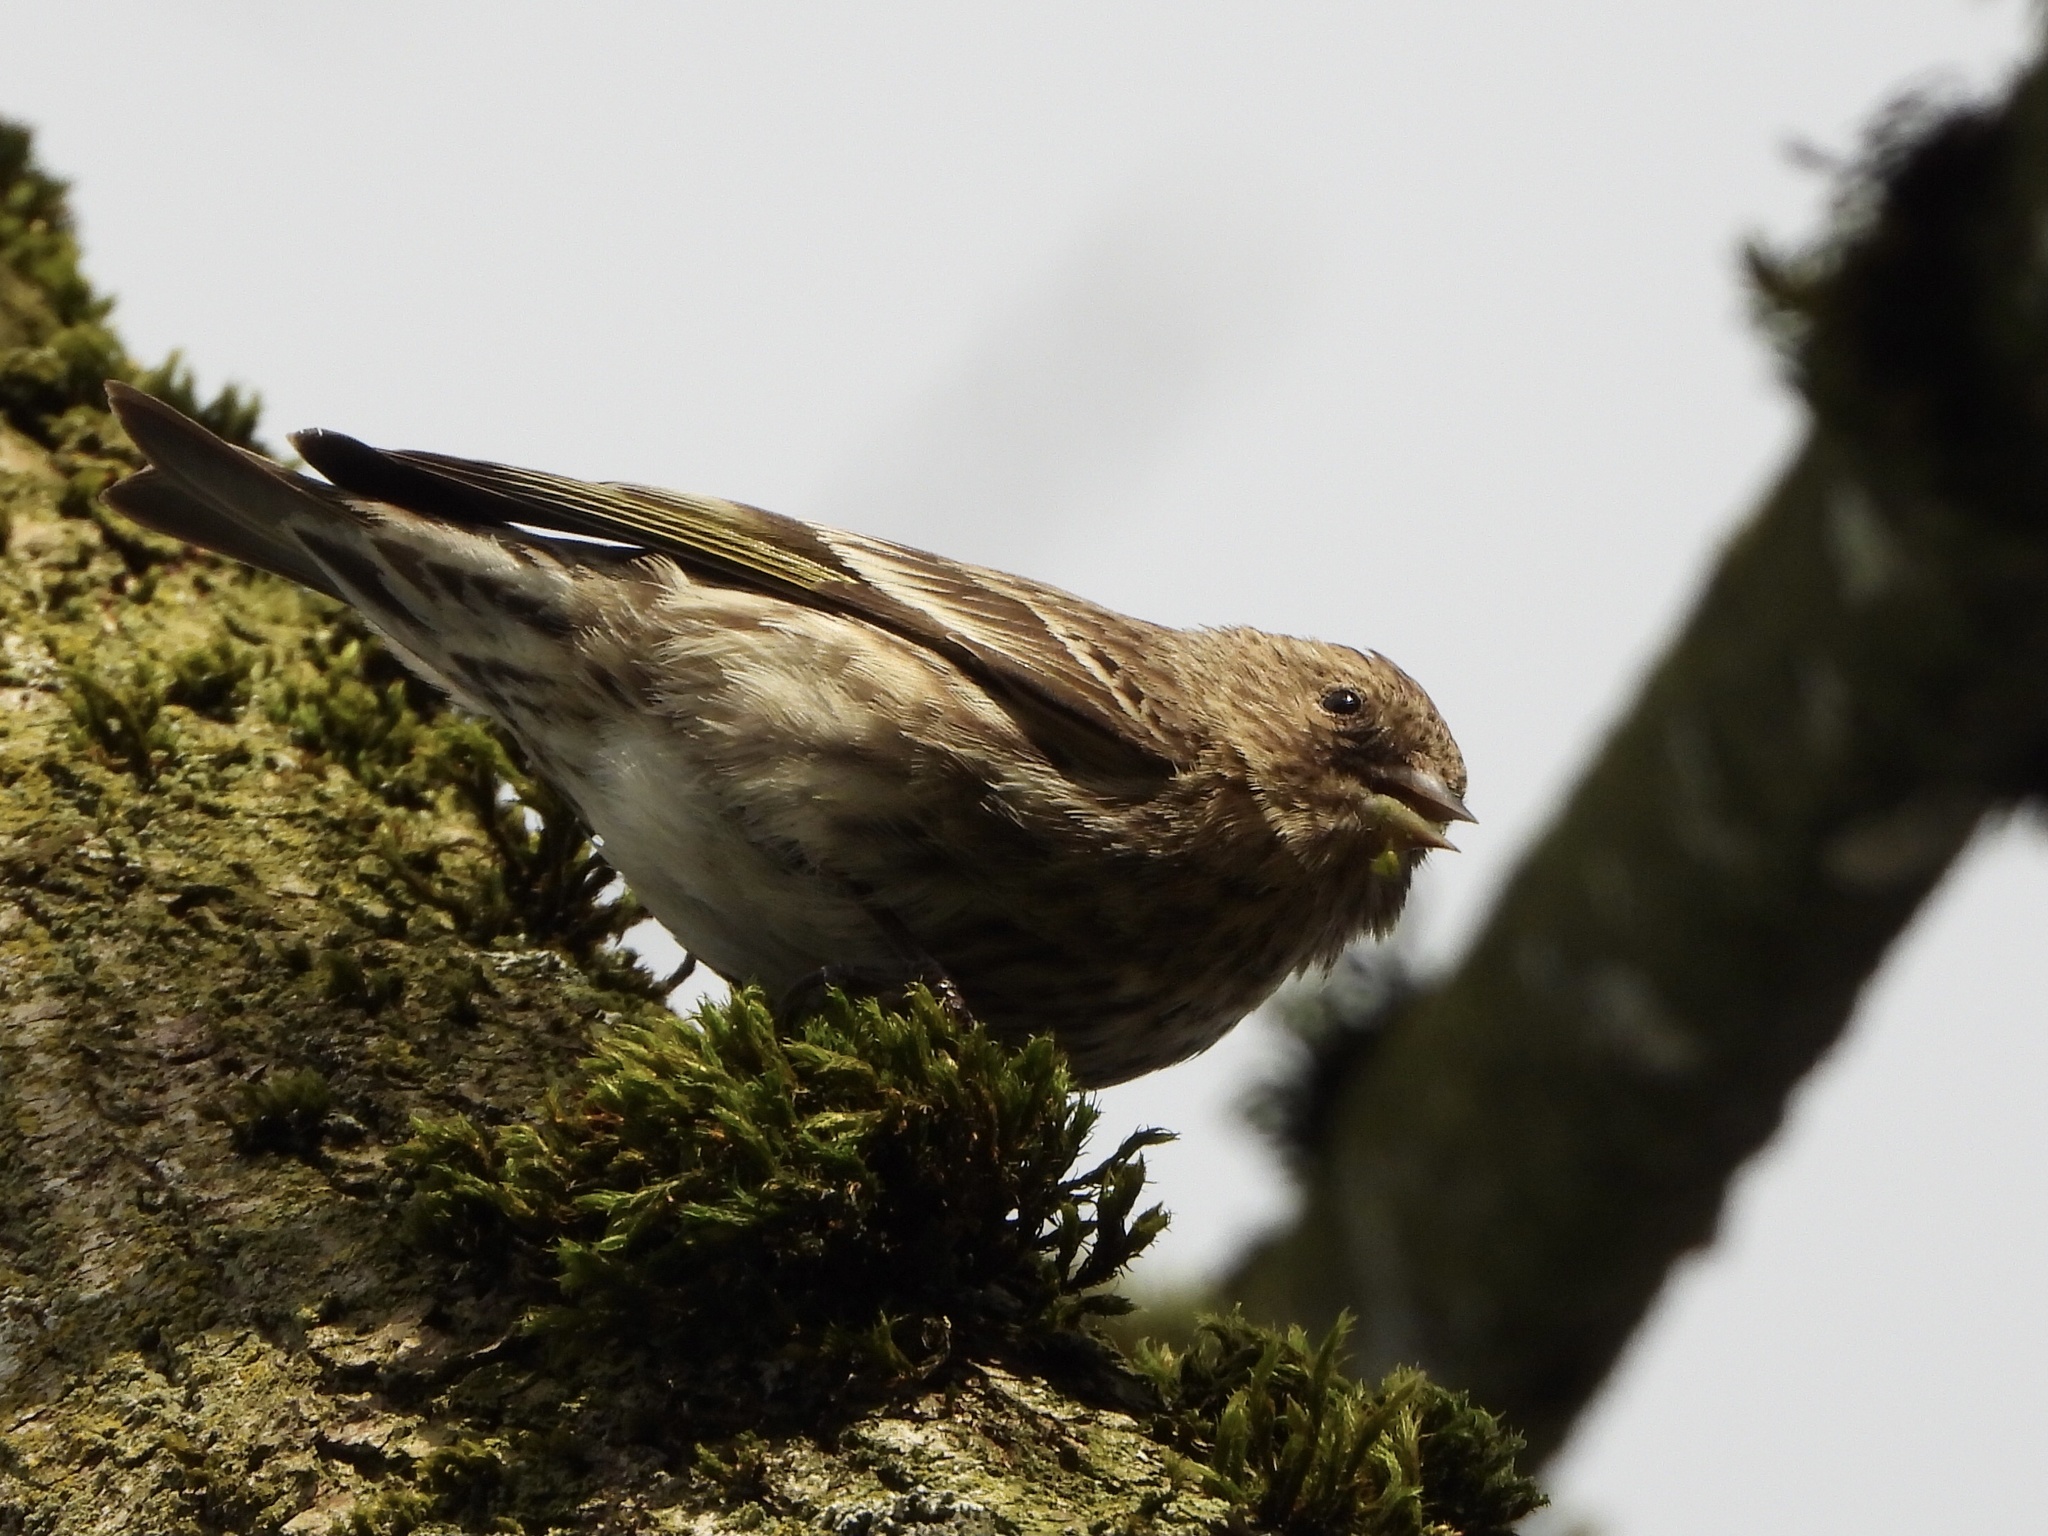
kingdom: Animalia
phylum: Chordata
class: Aves
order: Passeriformes
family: Fringillidae
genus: Spinus
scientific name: Spinus pinus
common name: Pine siskin
